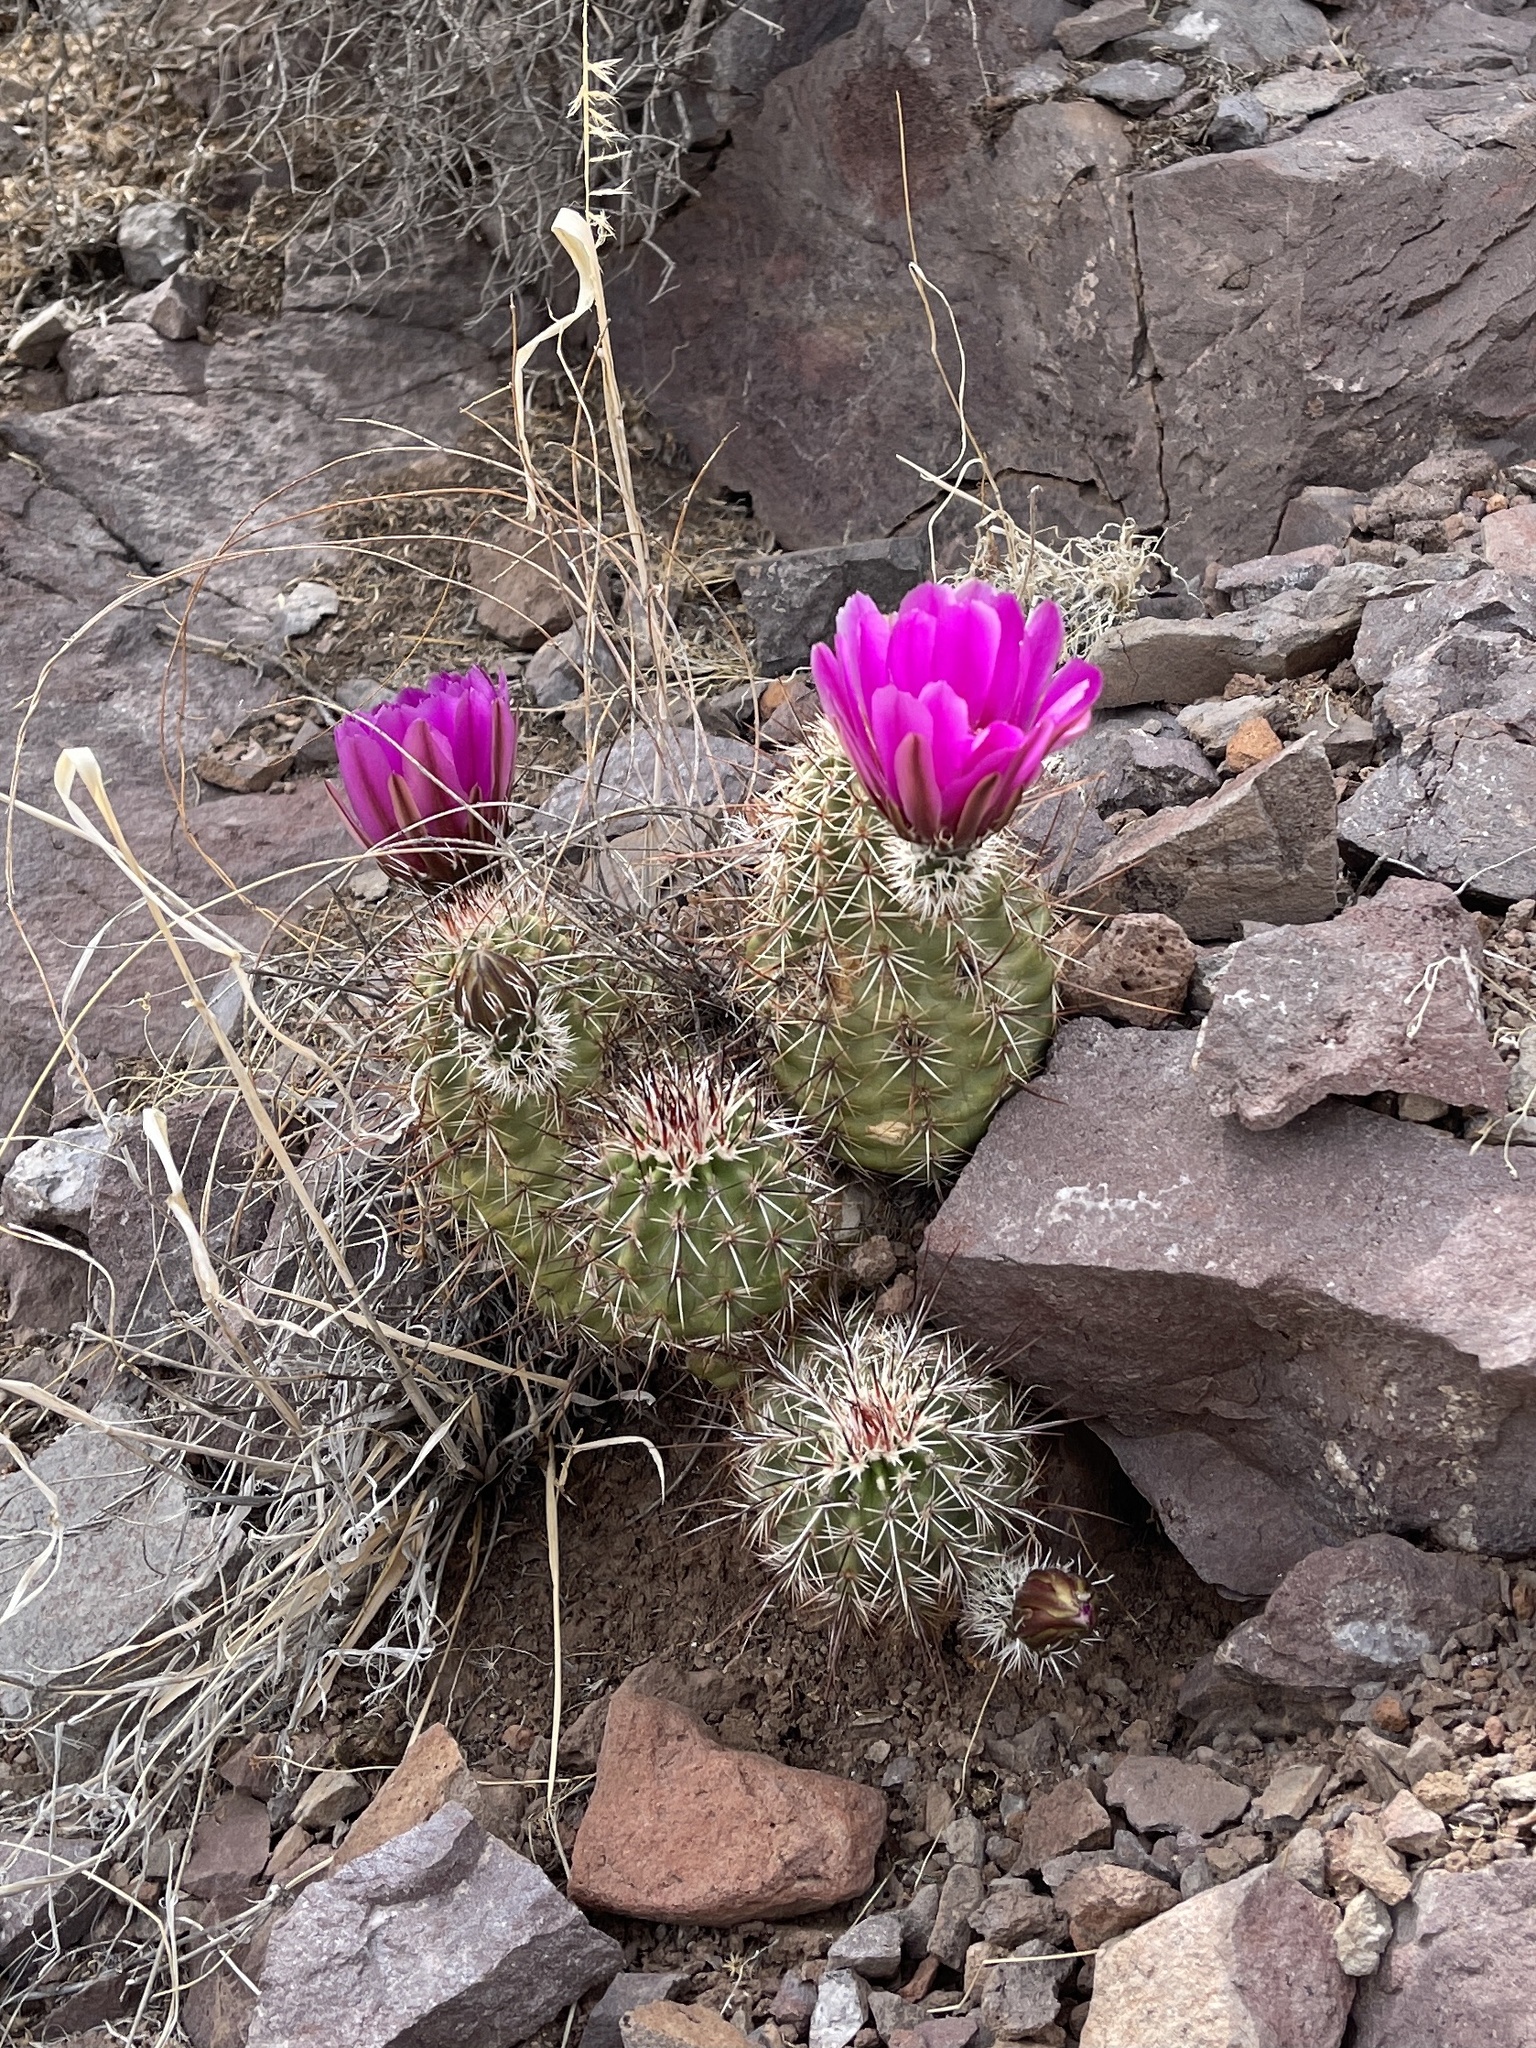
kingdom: Plantae
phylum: Tracheophyta
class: Magnoliopsida
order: Caryophyllales
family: Cactaceae
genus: Echinocereus
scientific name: Echinocereus fasciculatus
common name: Bundle hedgehog
